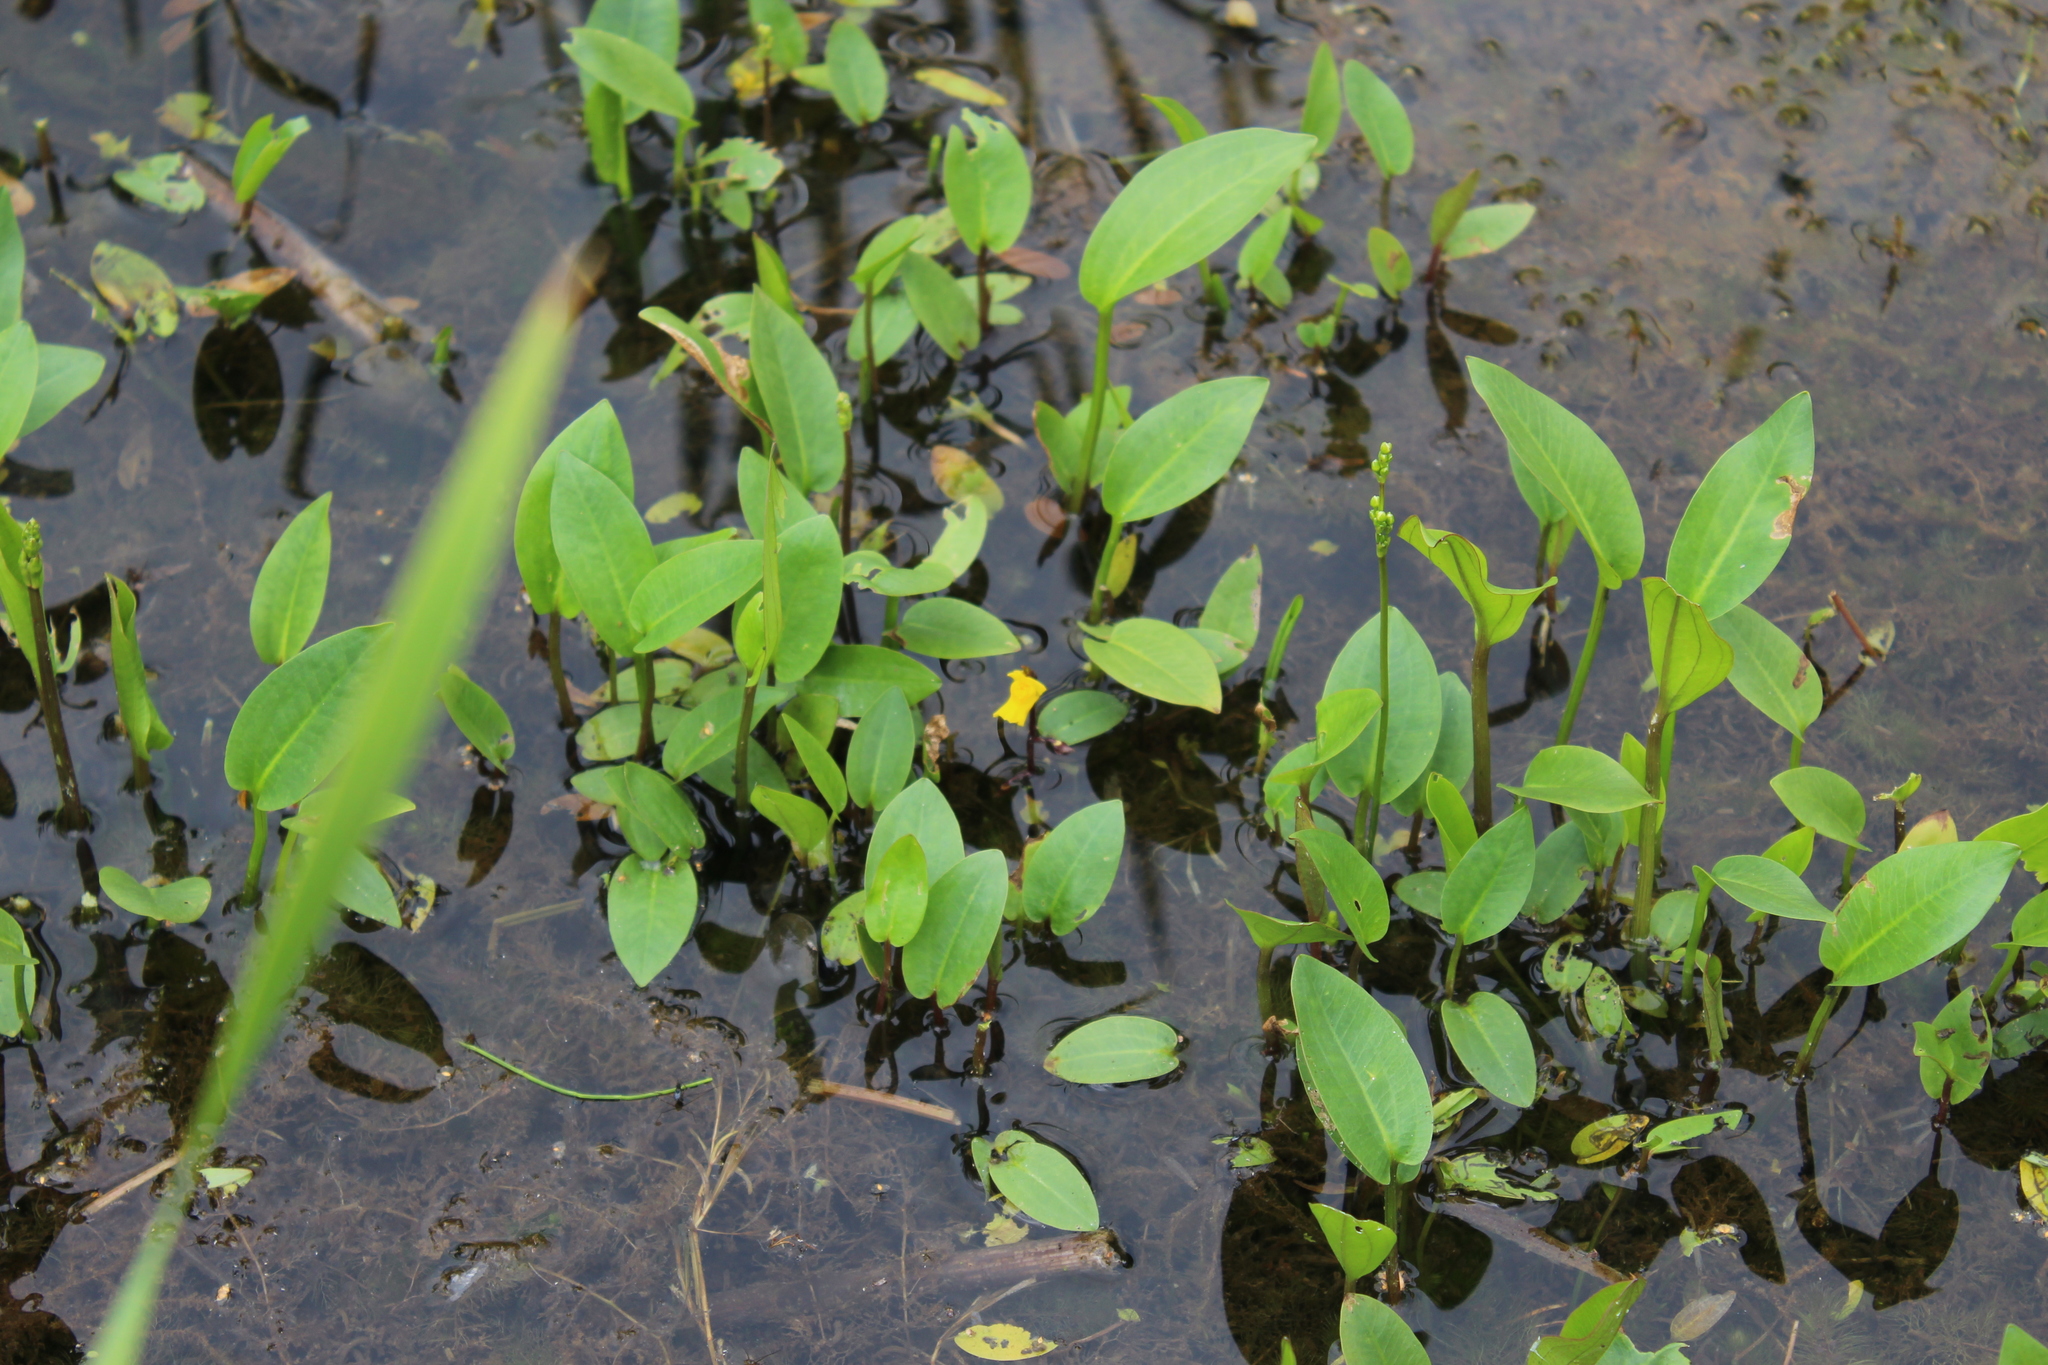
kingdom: Plantae
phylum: Tracheophyta
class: Magnoliopsida
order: Lamiales
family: Lentibulariaceae
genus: Utricularia
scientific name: Utricularia vulgaris
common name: Greater bladderwort
